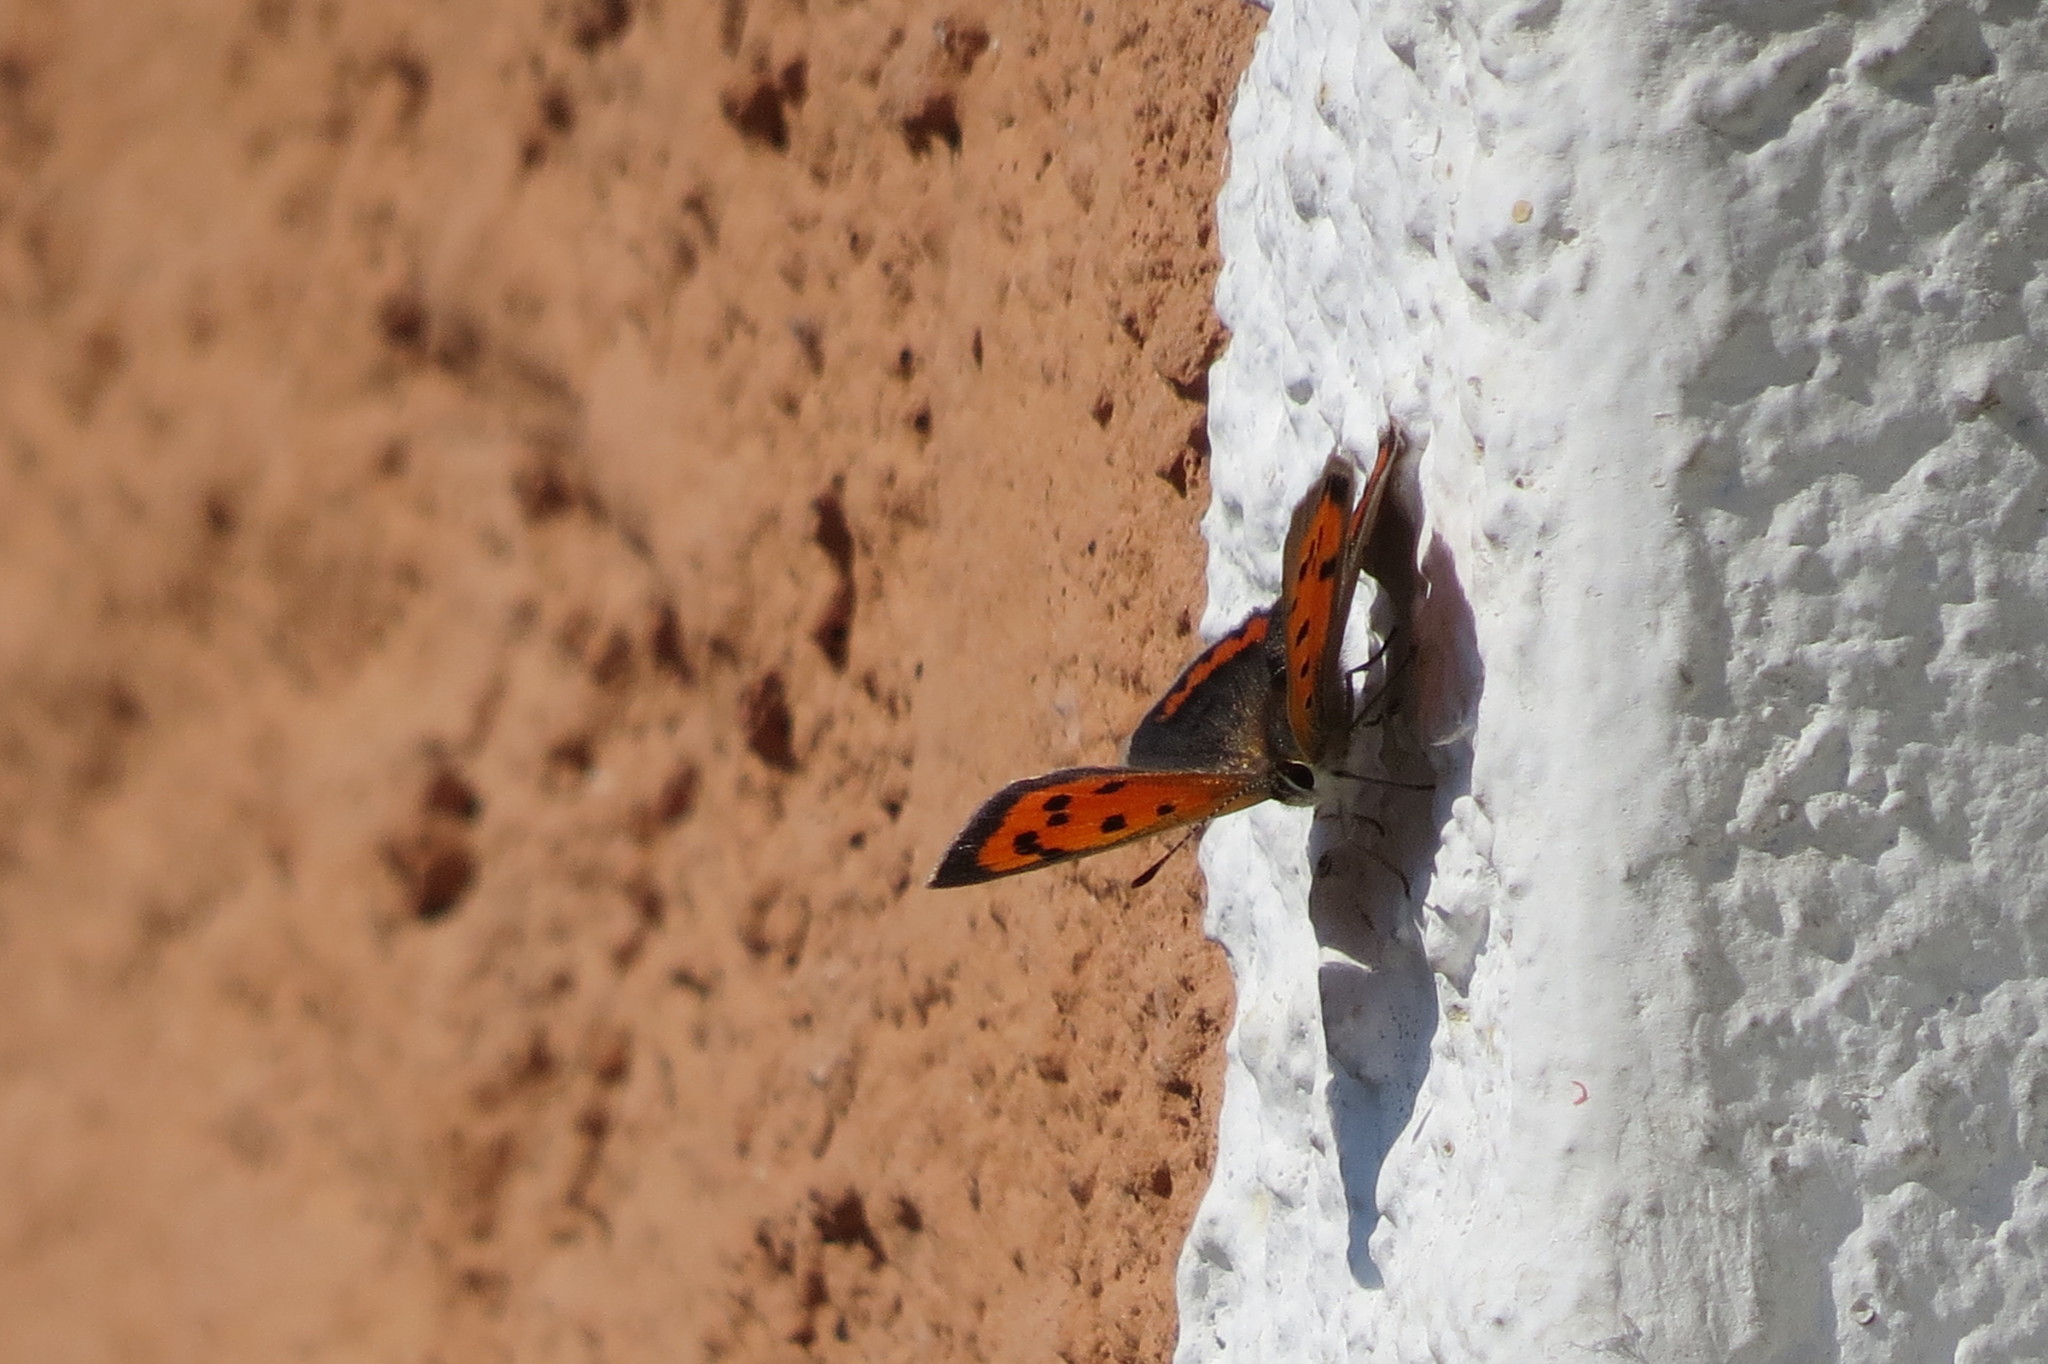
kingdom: Animalia
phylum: Arthropoda
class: Insecta
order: Lepidoptera
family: Lycaenidae
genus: Lycaena
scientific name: Lycaena phlaeas
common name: Small copper
